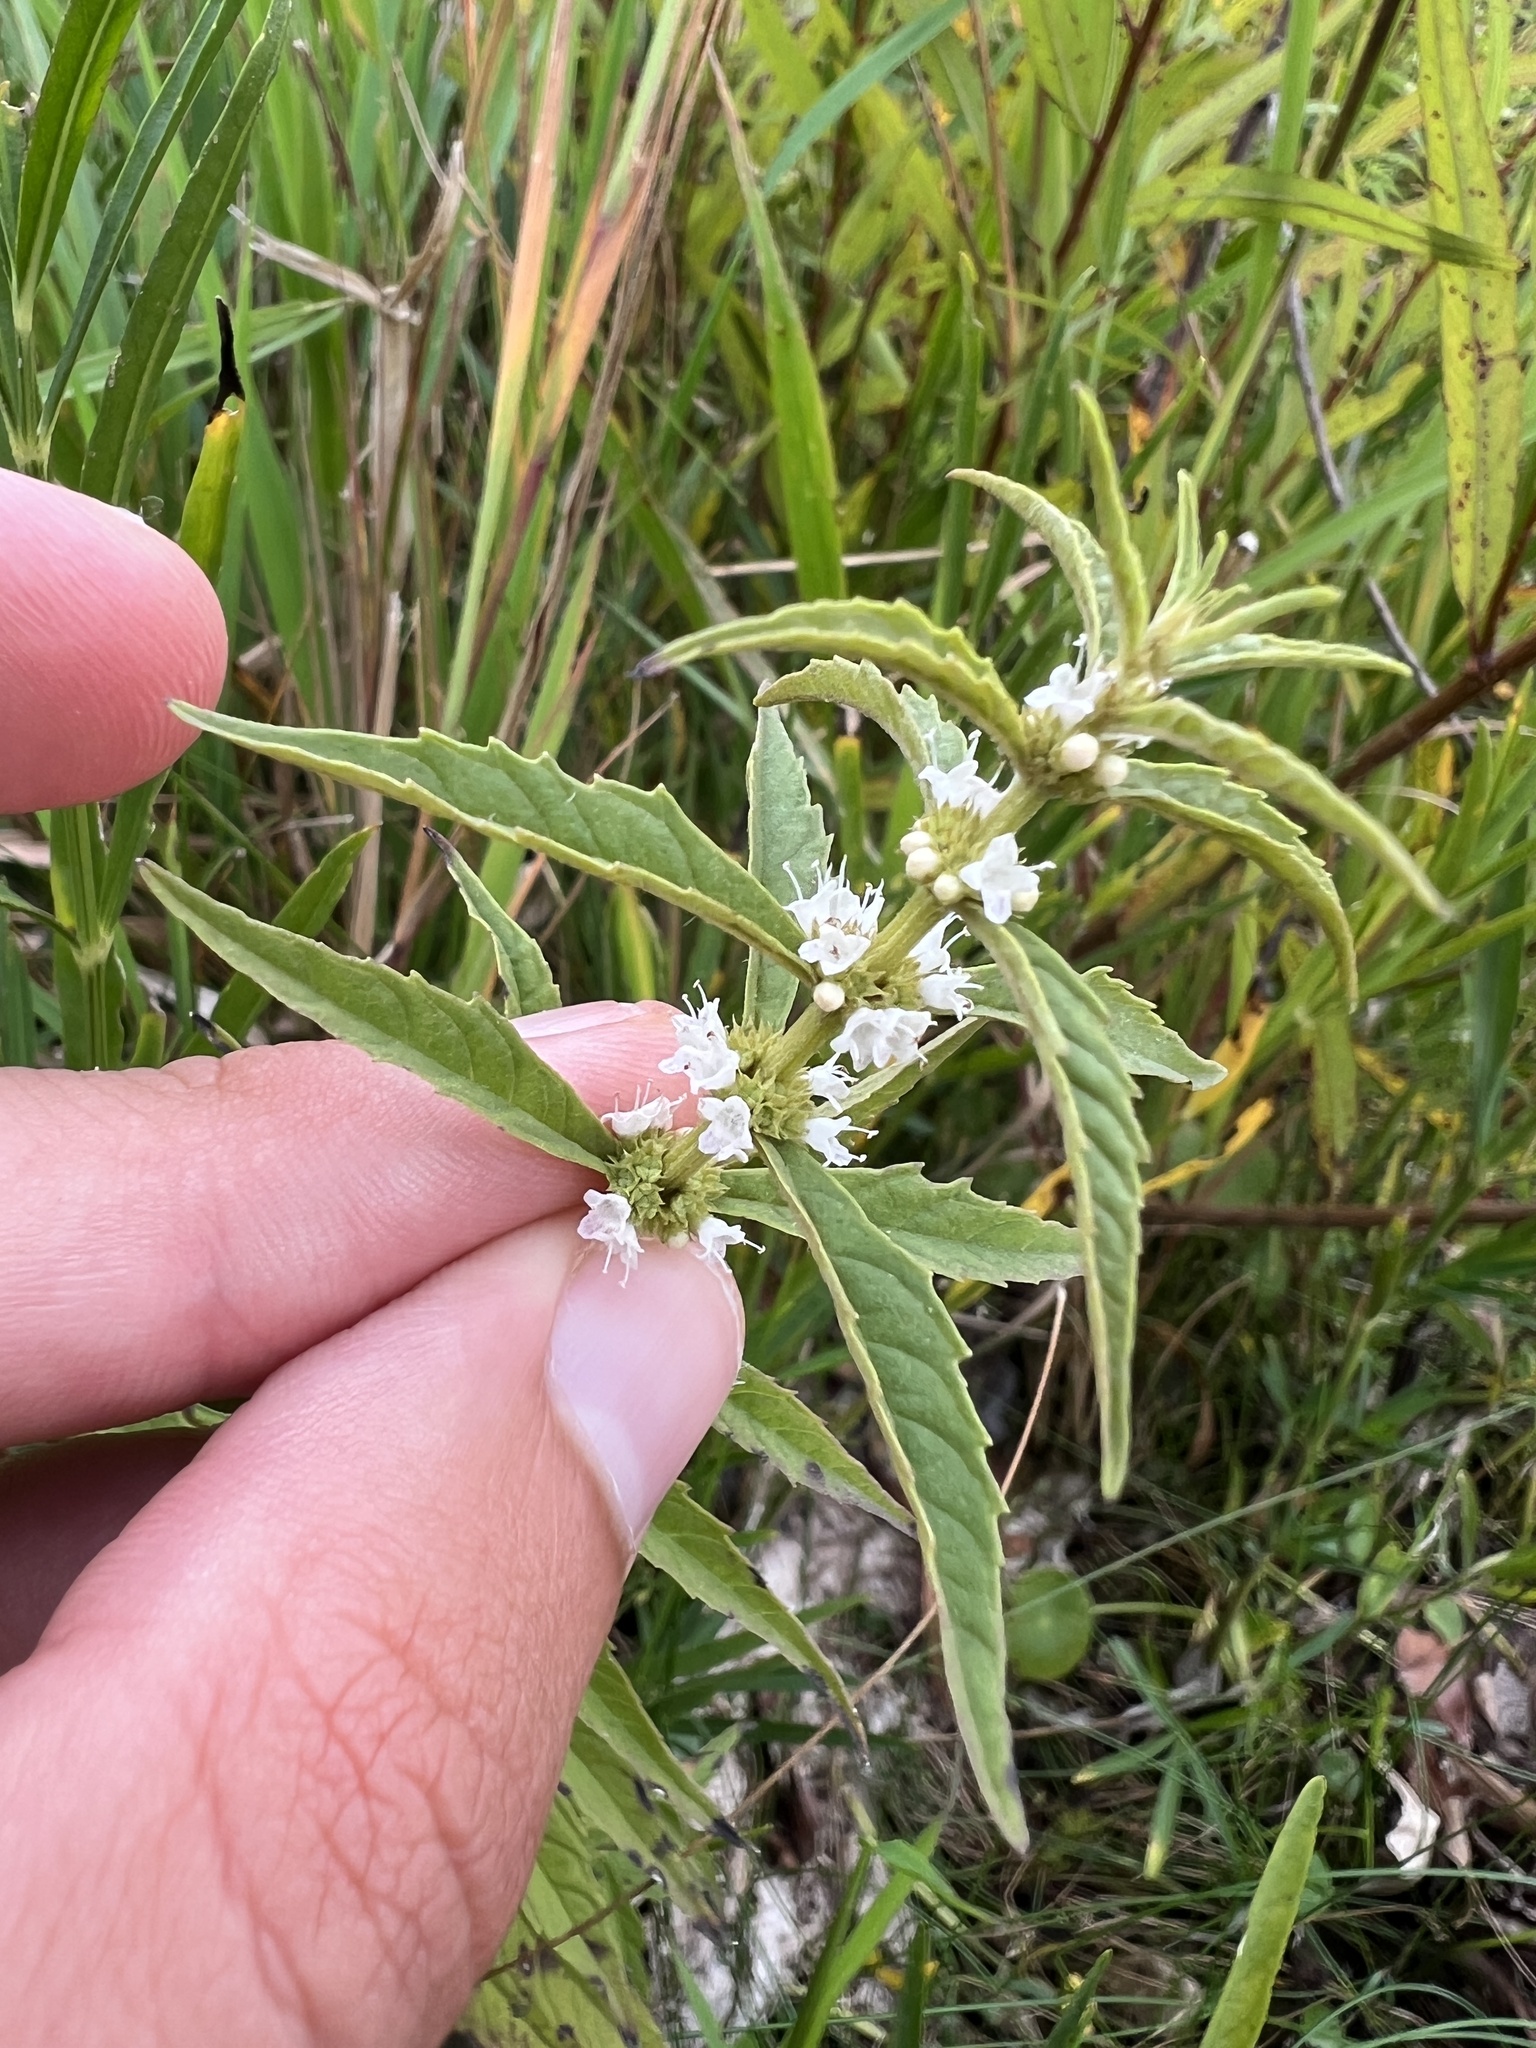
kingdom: Plantae
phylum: Tracheophyta
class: Magnoliopsida
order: Lamiales
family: Lamiaceae
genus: Lycopus
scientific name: Lycopus americanus
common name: American bugleweed
